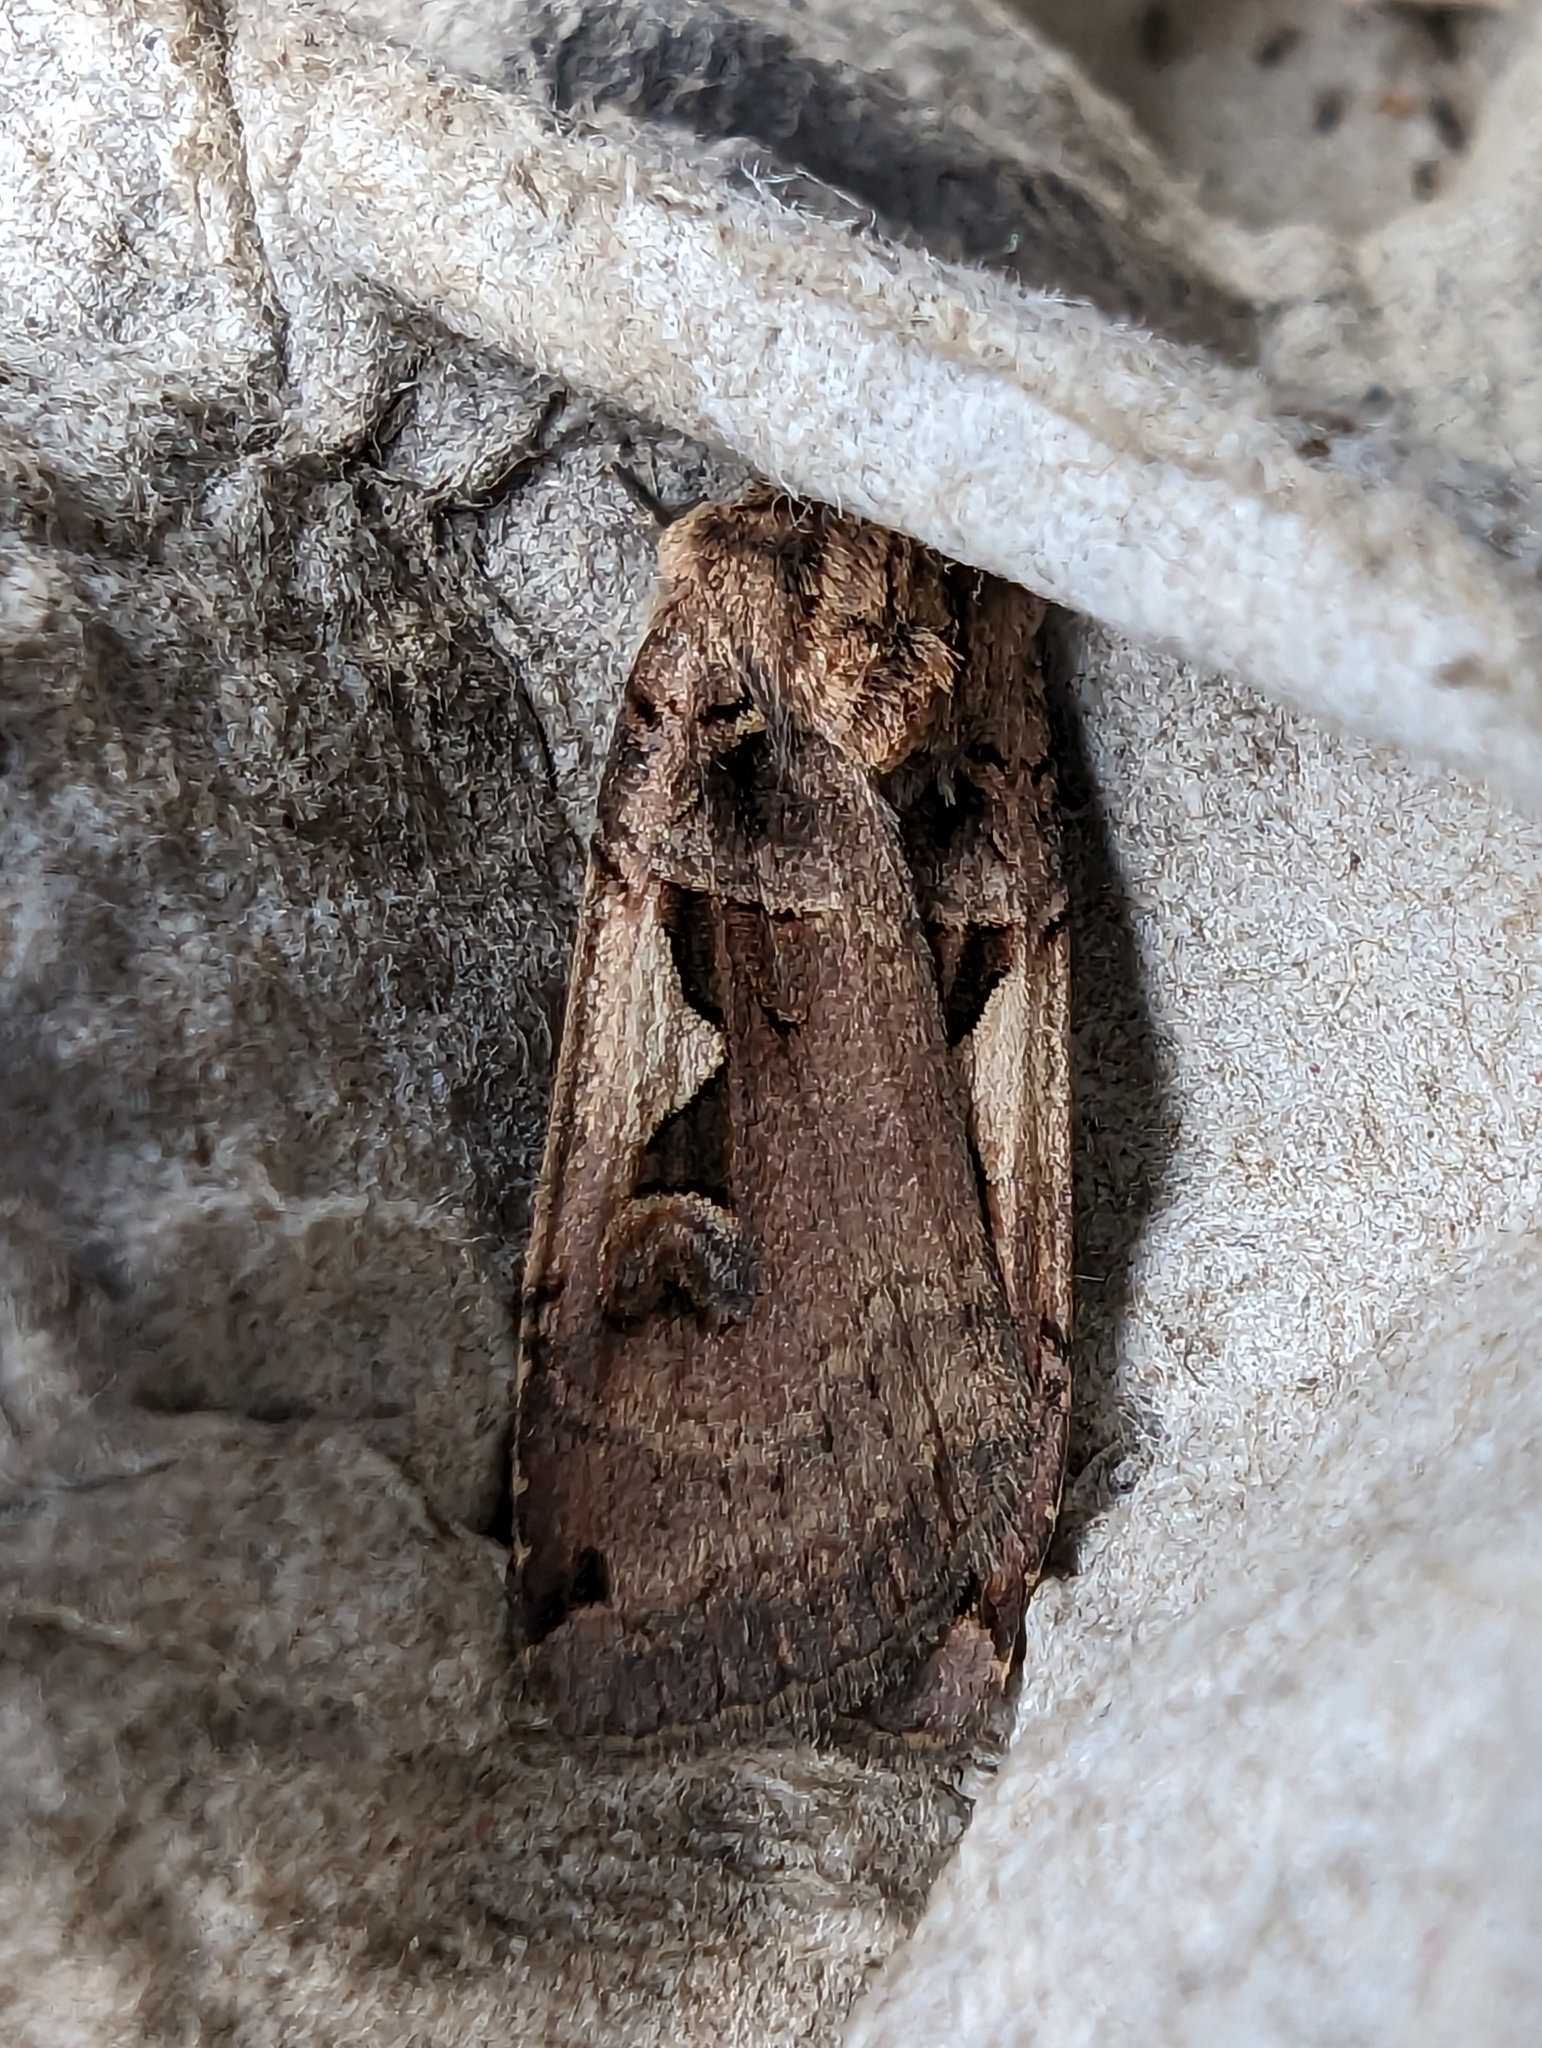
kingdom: Animalia
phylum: Arthropoda
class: Insecta
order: Lepidoptera
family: Noctuidae
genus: Xestia
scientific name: Xestia c-nigrum
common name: Setaceous hebrew character
